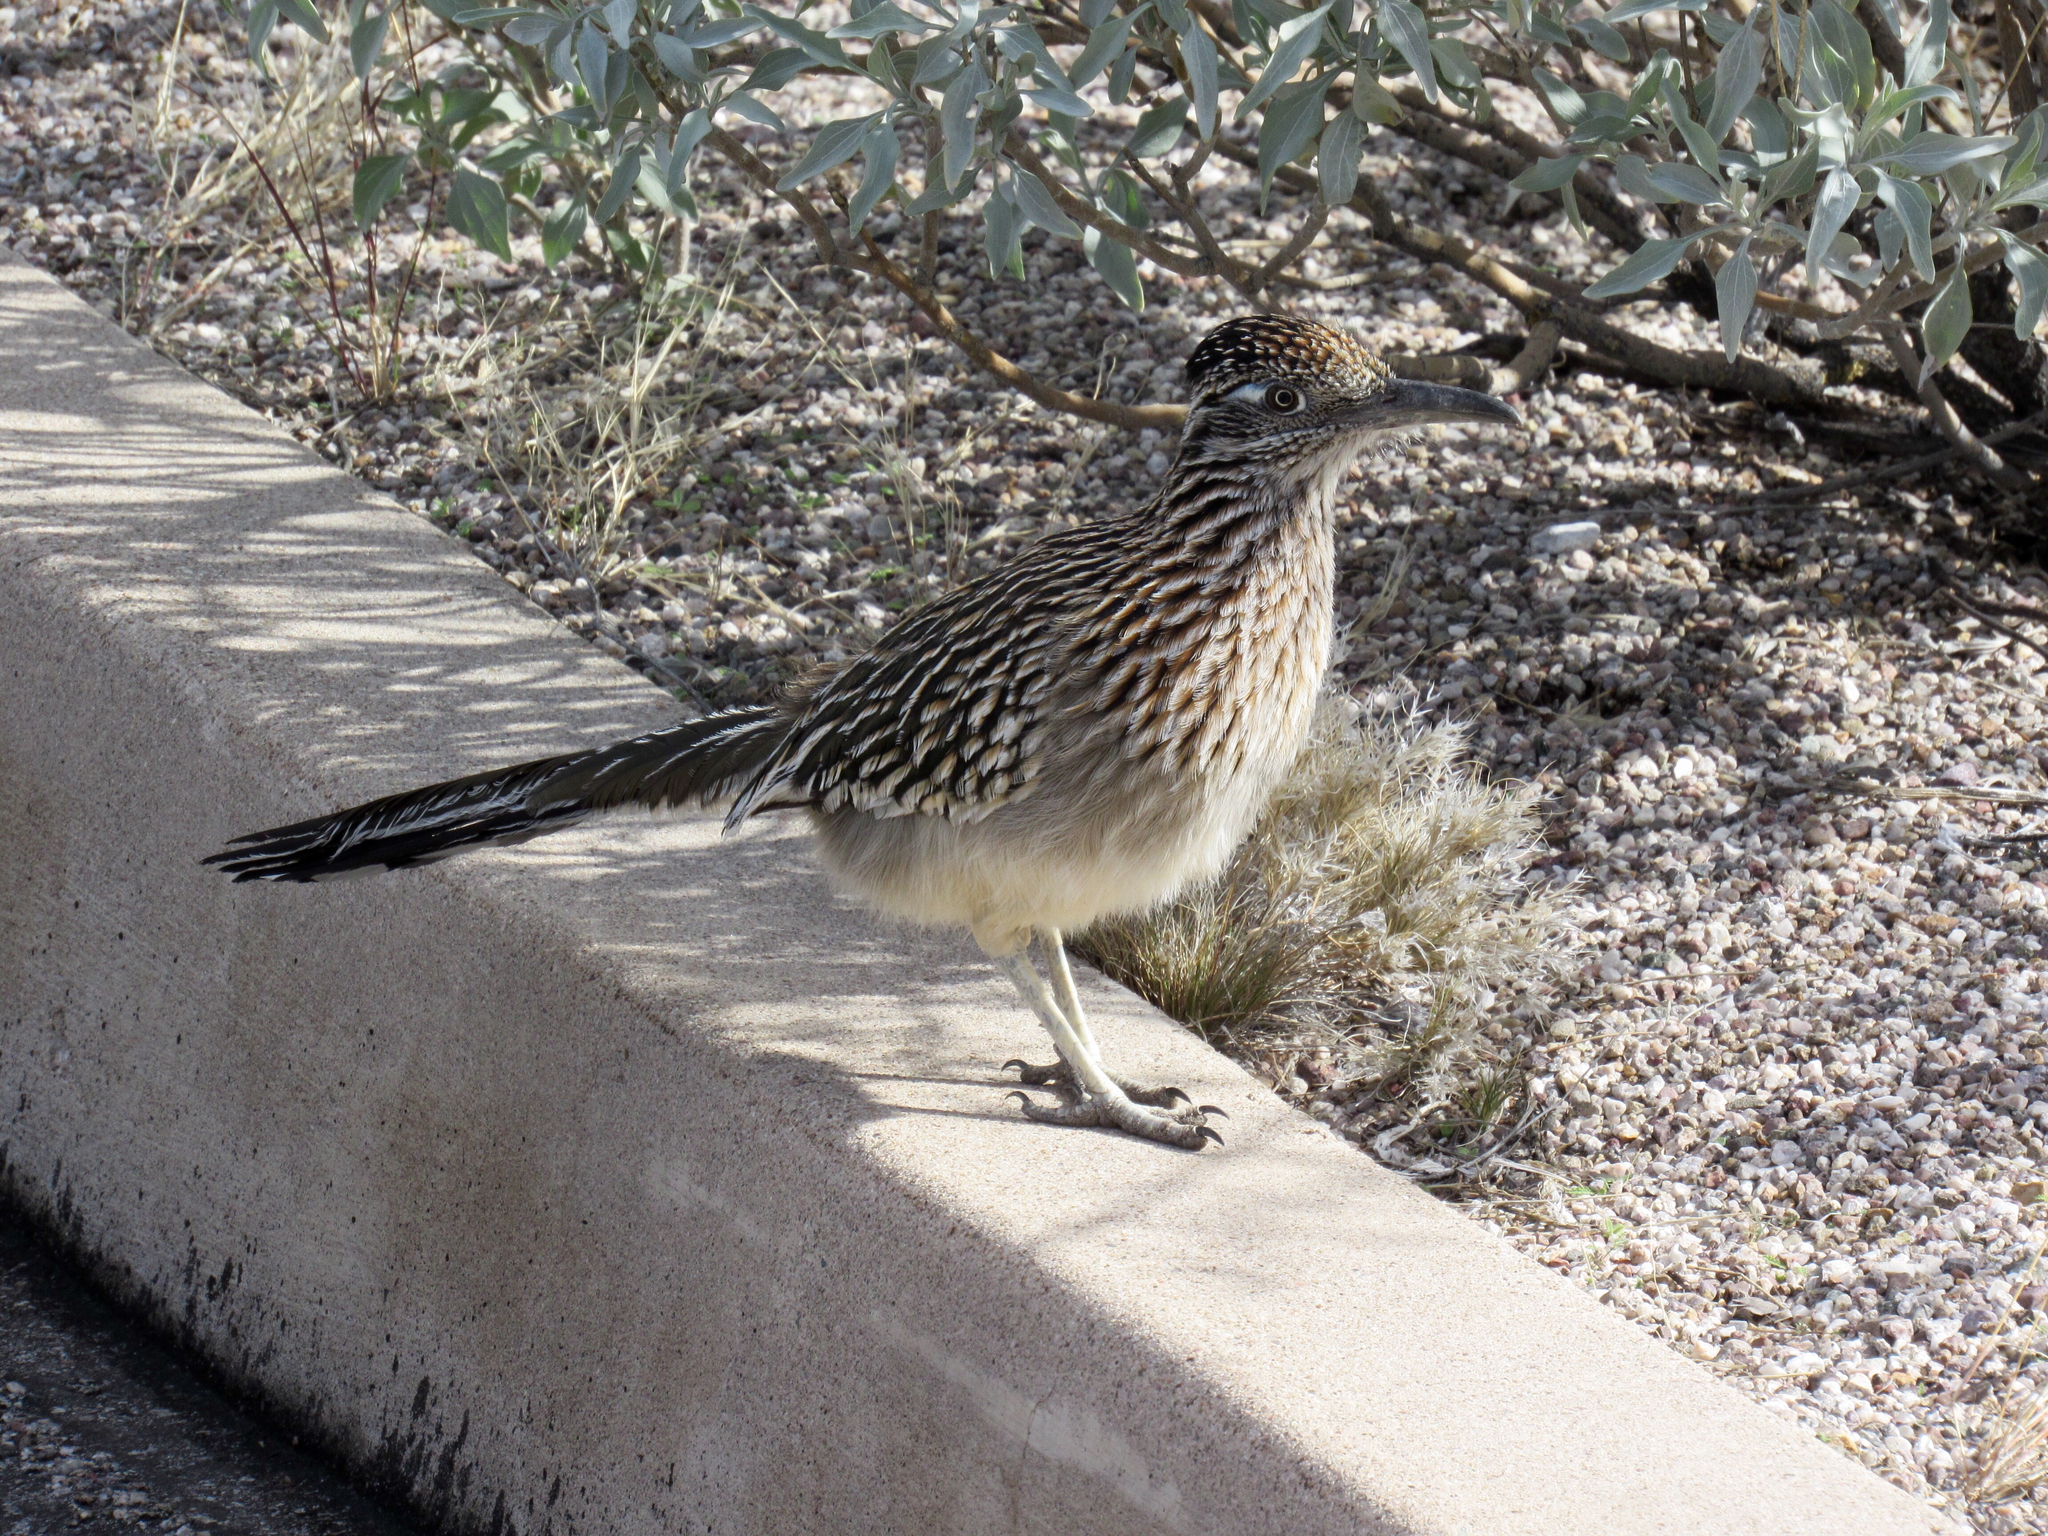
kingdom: Animalia
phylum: Chordata
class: Aves
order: Cuculiformes
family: Cuculidae
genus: Geococcyx
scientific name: Geococcyx californianus
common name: Greater roadrunner
